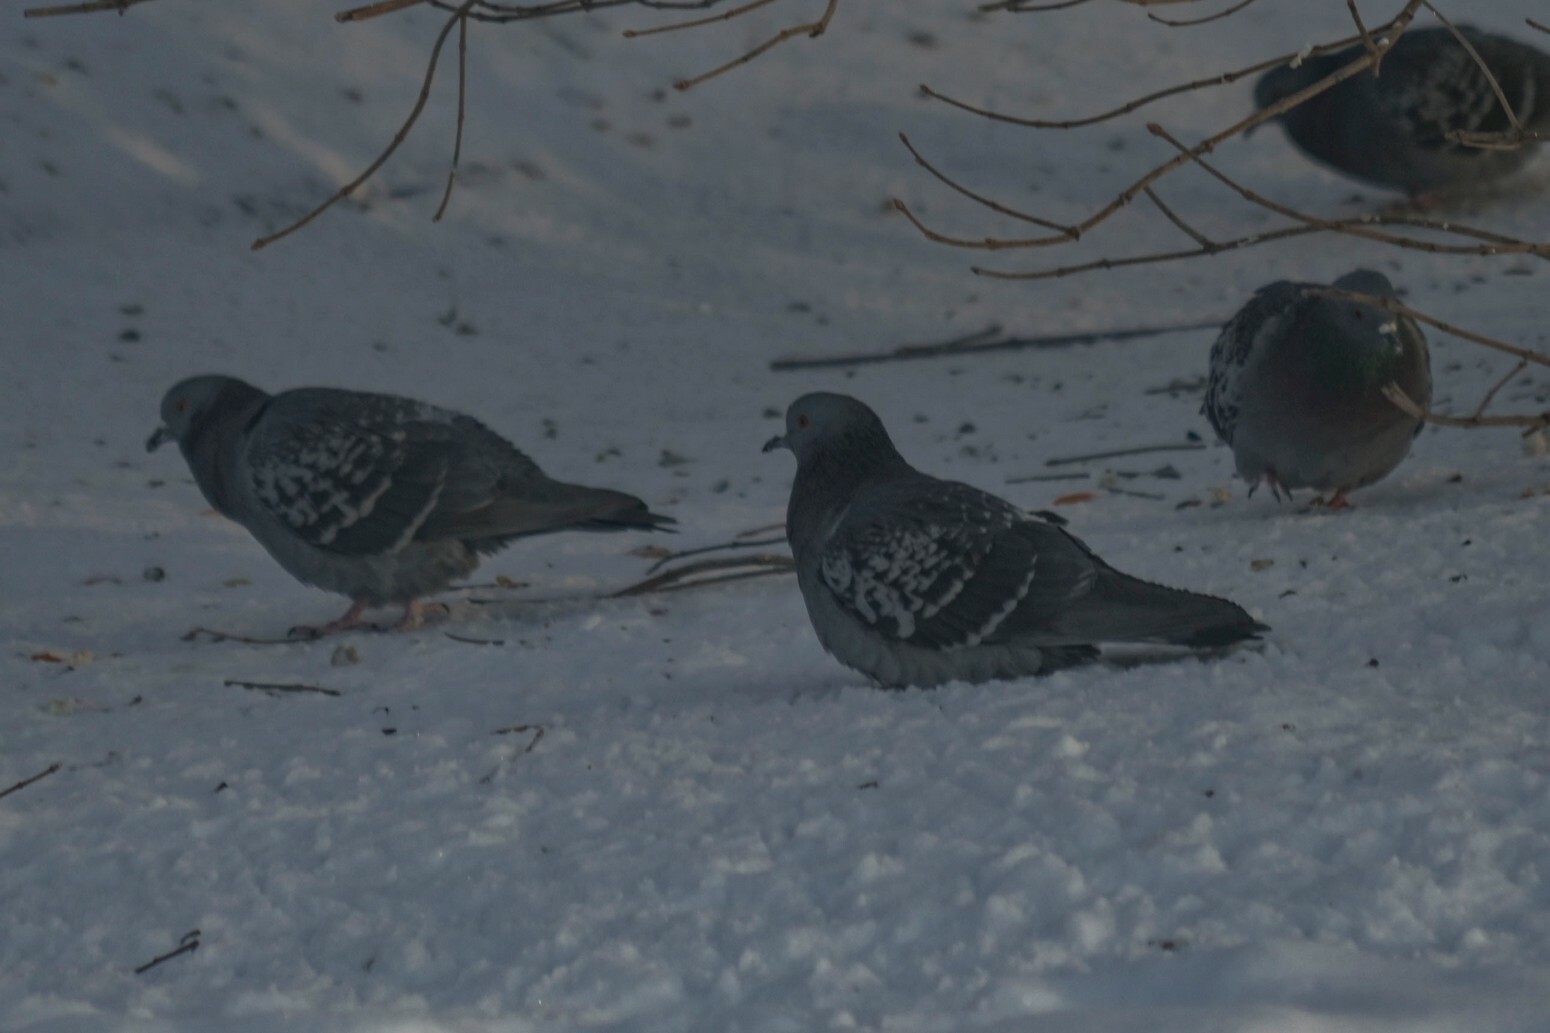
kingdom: Animalia
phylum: Chordata
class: Aves
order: Columbiformes
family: Columbidae
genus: Columba
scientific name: Columba livia
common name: Rock pigeon
